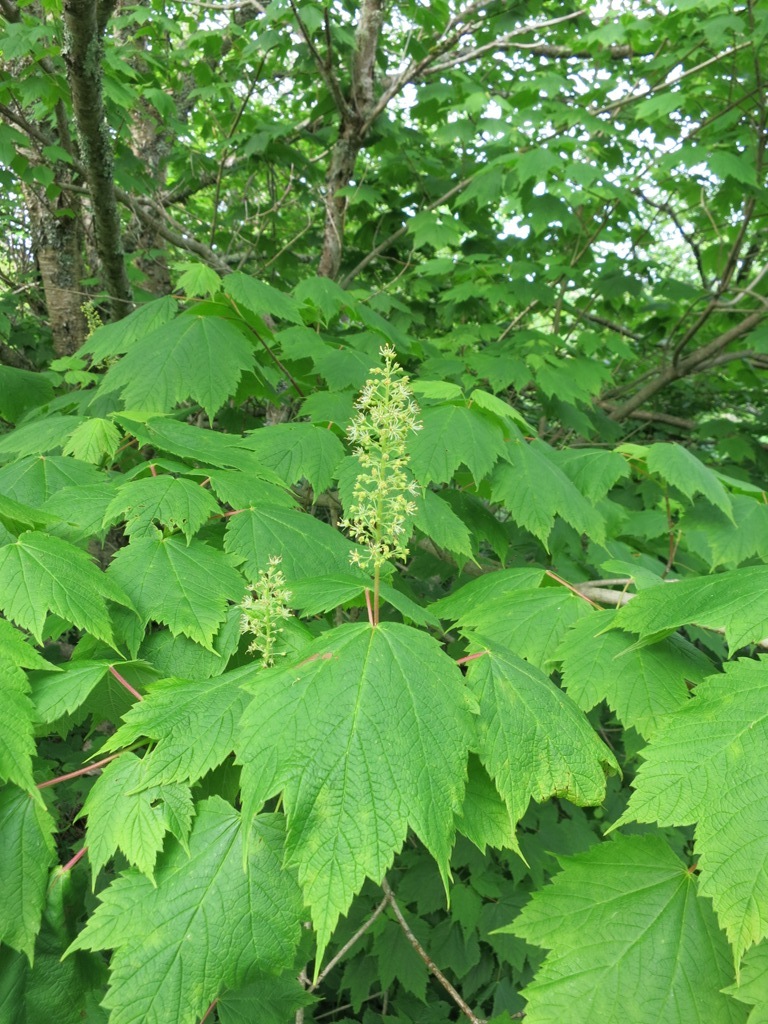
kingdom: Plantae
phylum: Tracheophyta
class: Magnoliopsida
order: Sapindales
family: Sapindaceae
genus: Acer
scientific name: Acer spicatum
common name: Mountain maple
